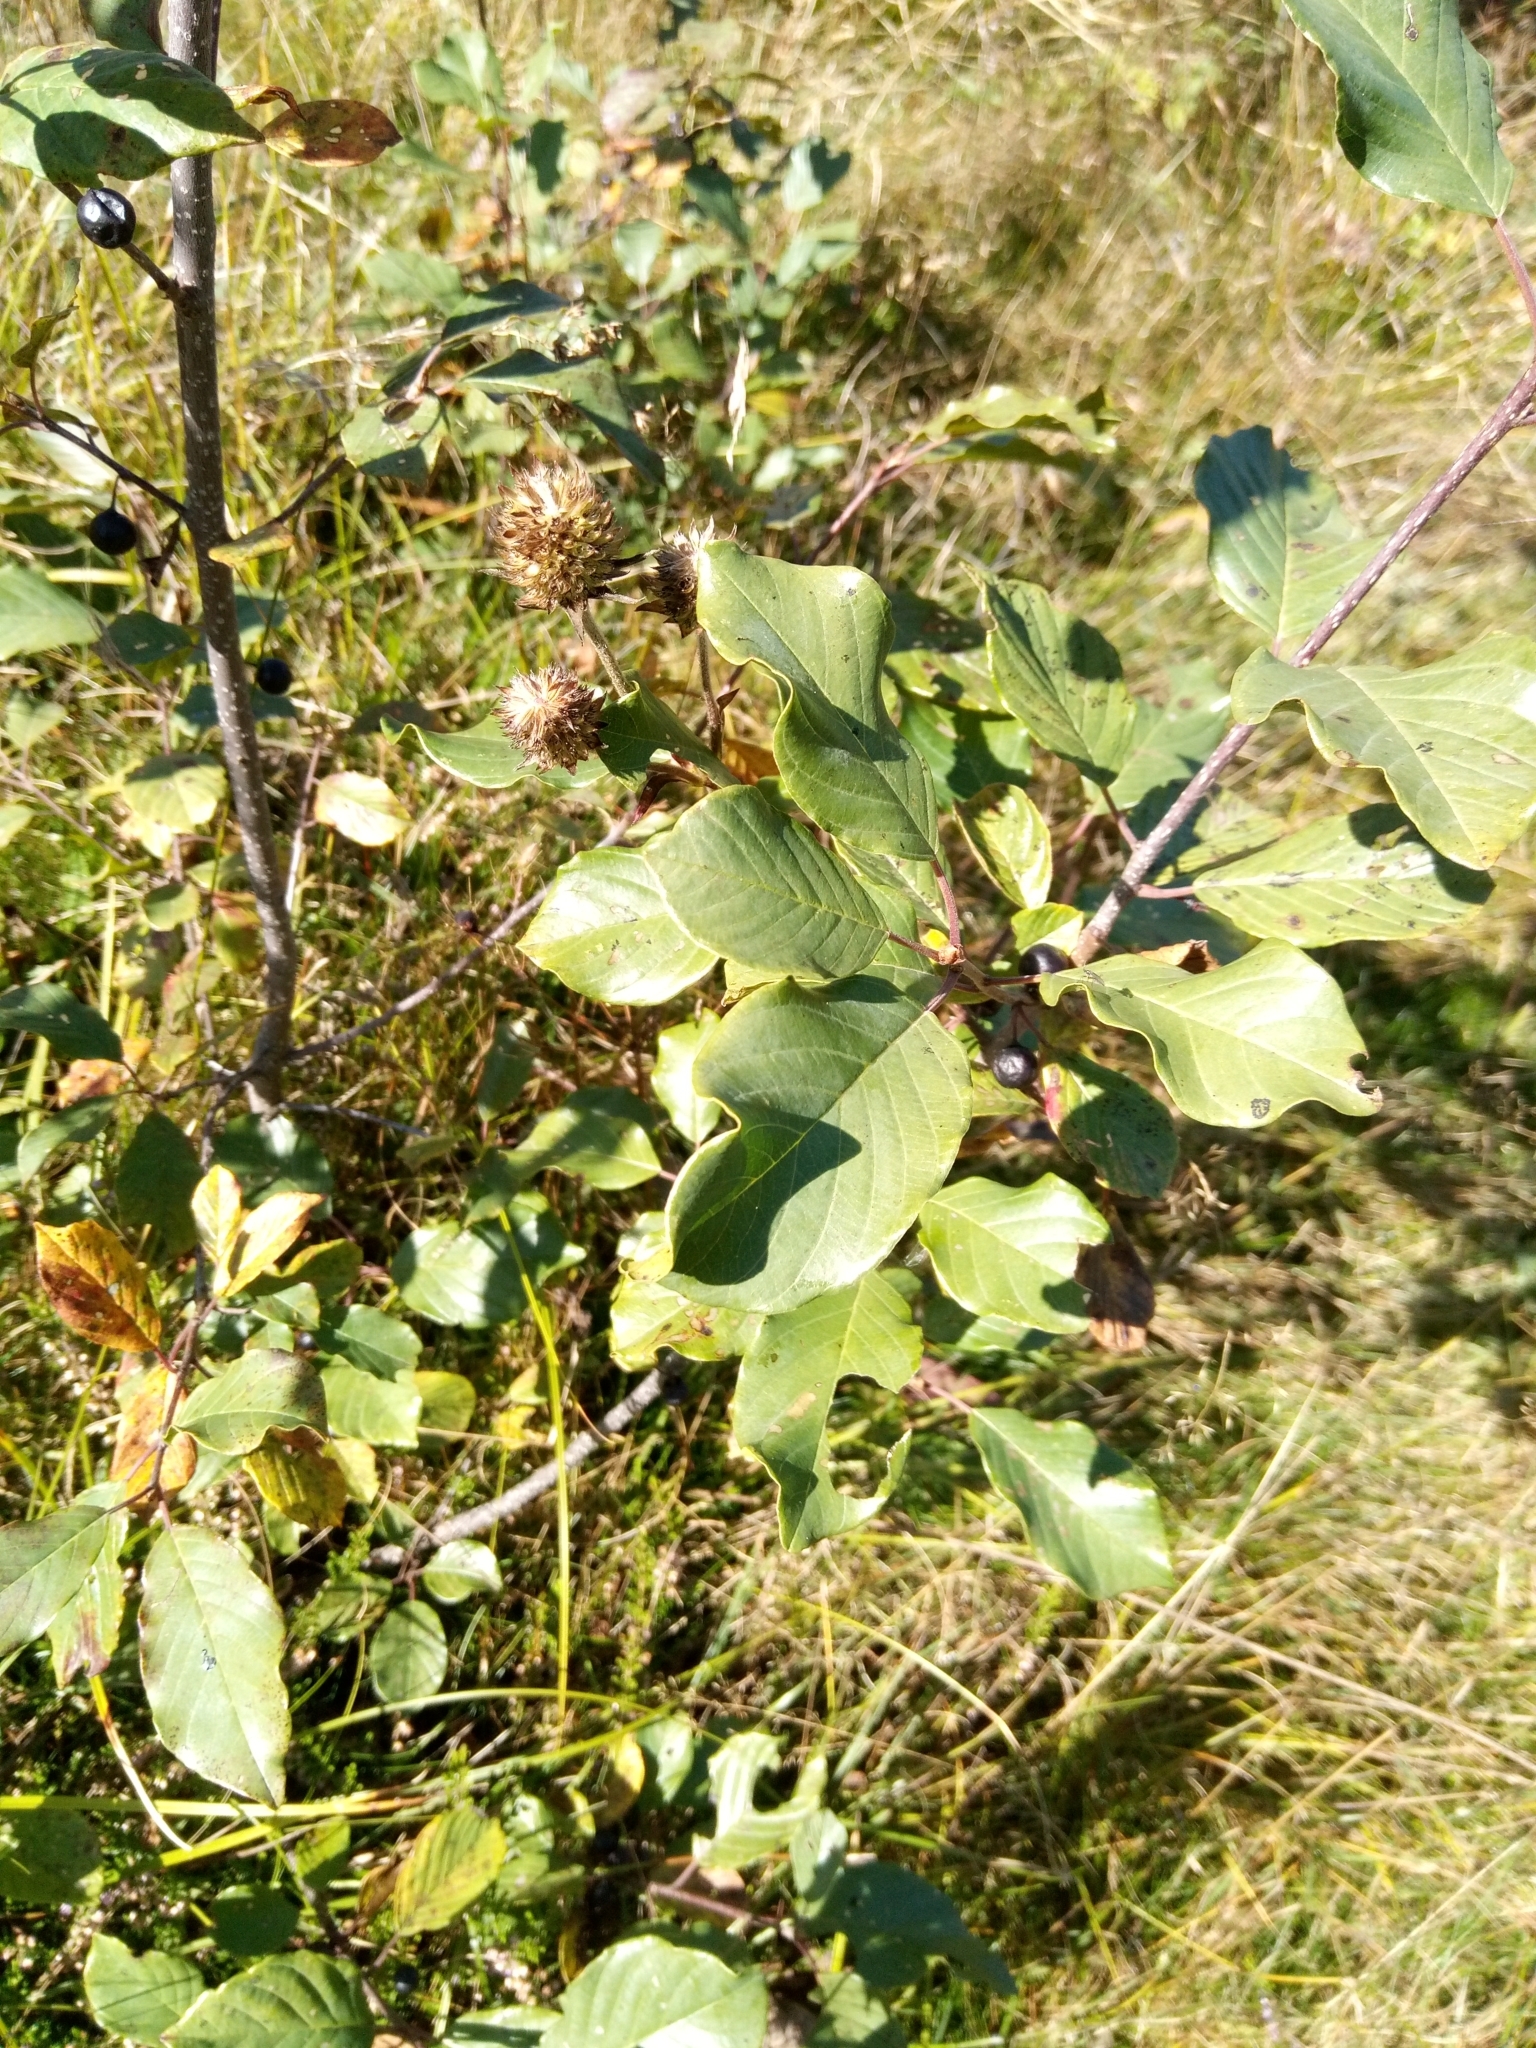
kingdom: Plantae
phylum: Tracheophyta
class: Magnoliopsida
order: Rosales
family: Rhamnaceae
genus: Frangula
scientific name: Frangula alnus
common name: Alder buckthorn
